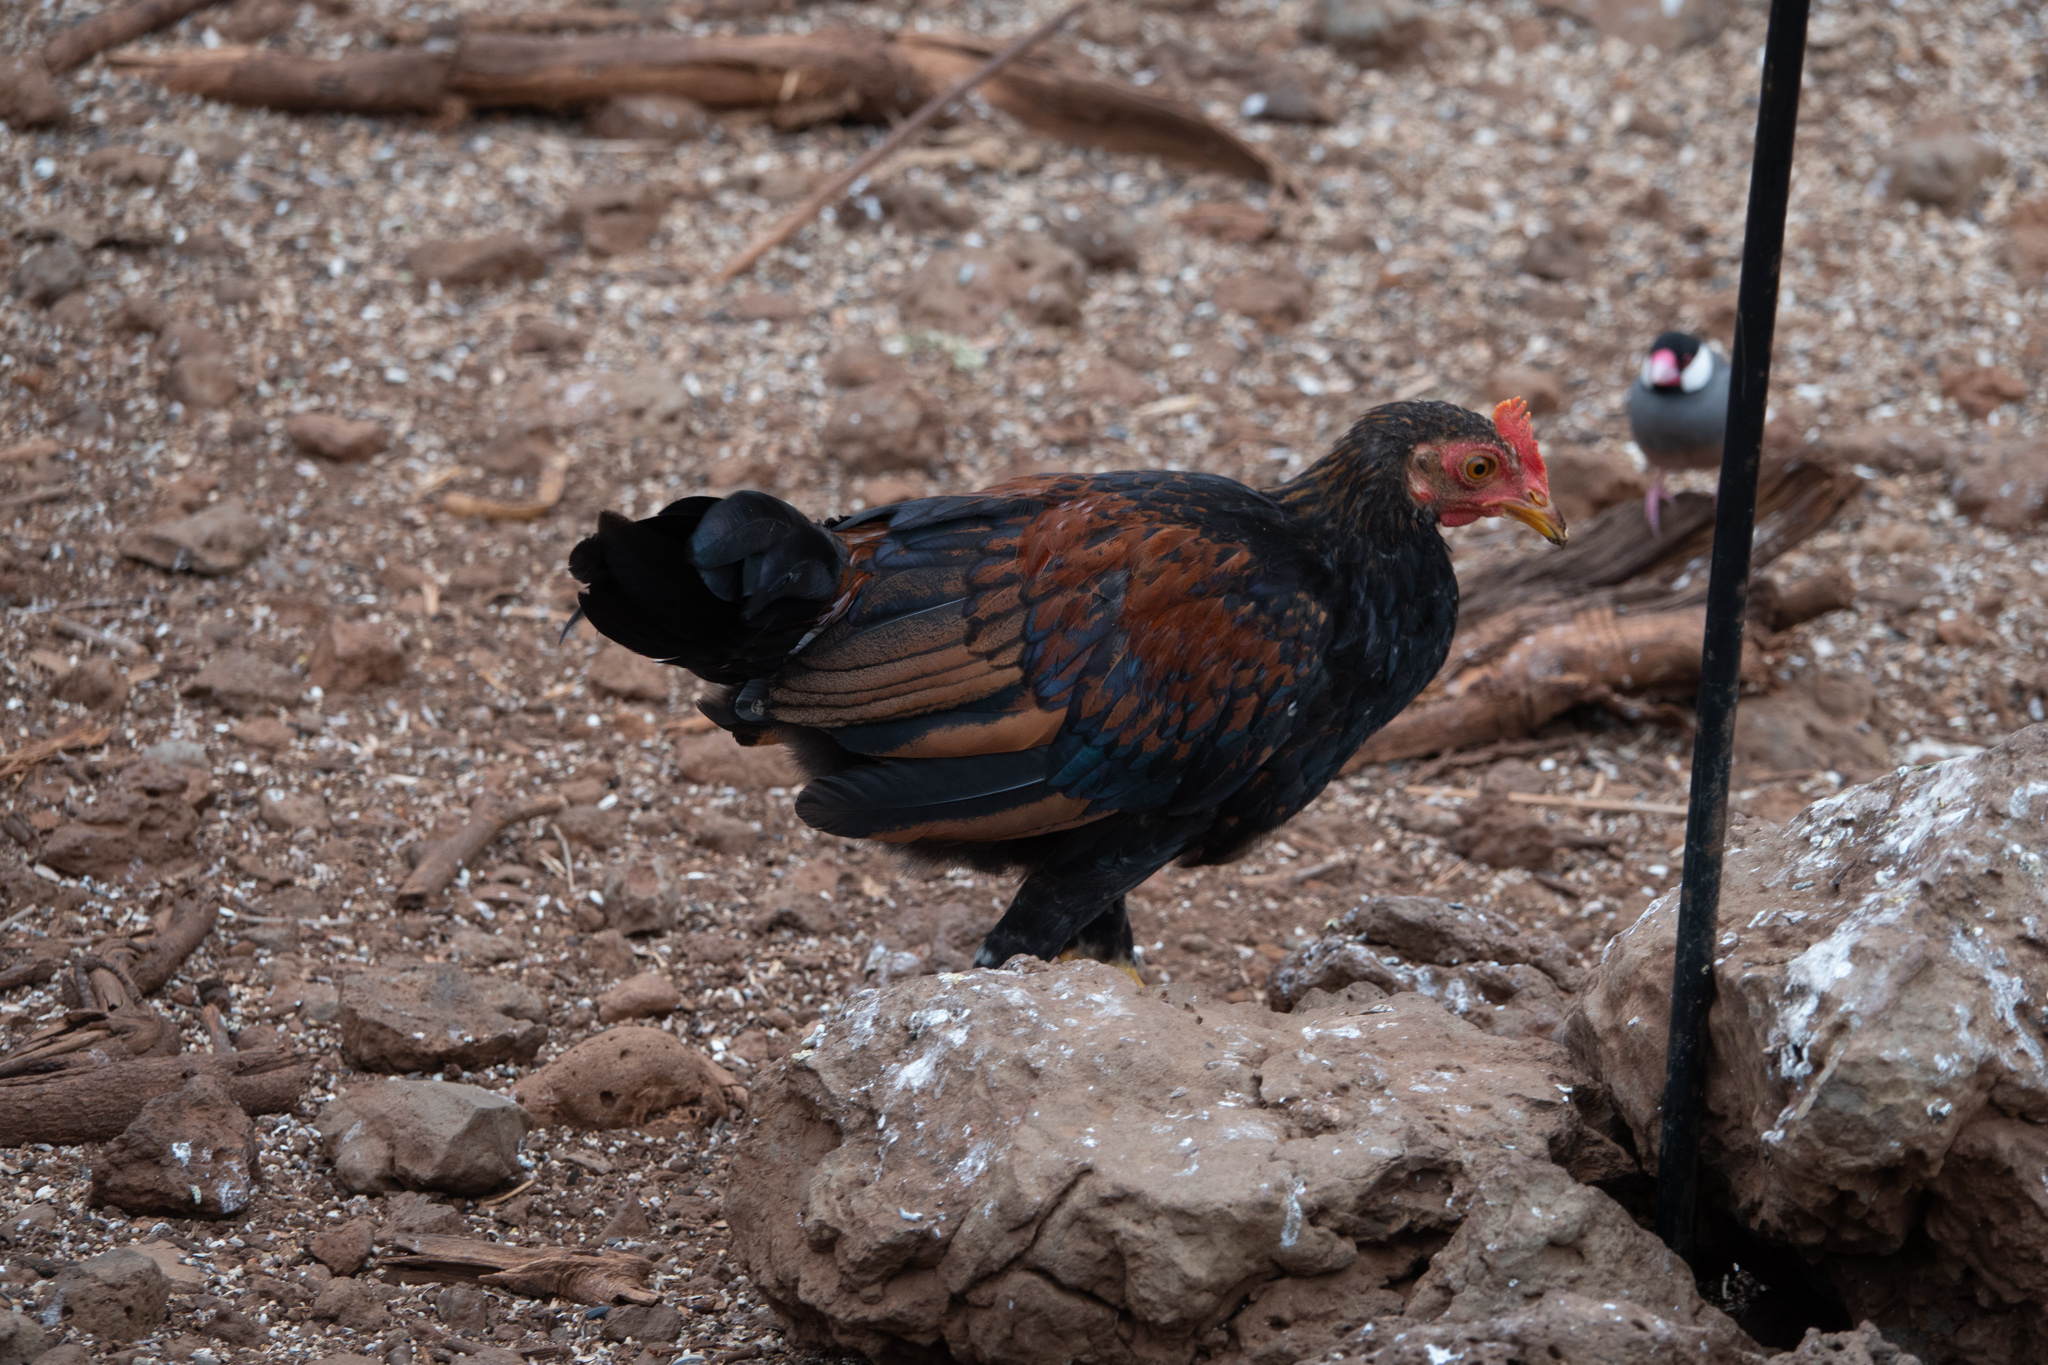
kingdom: Animalia
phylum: Chordata
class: Aves
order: Galliformes
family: Phasianidae
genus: Gallus
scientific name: Gallus gallus
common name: Red junglefowl
